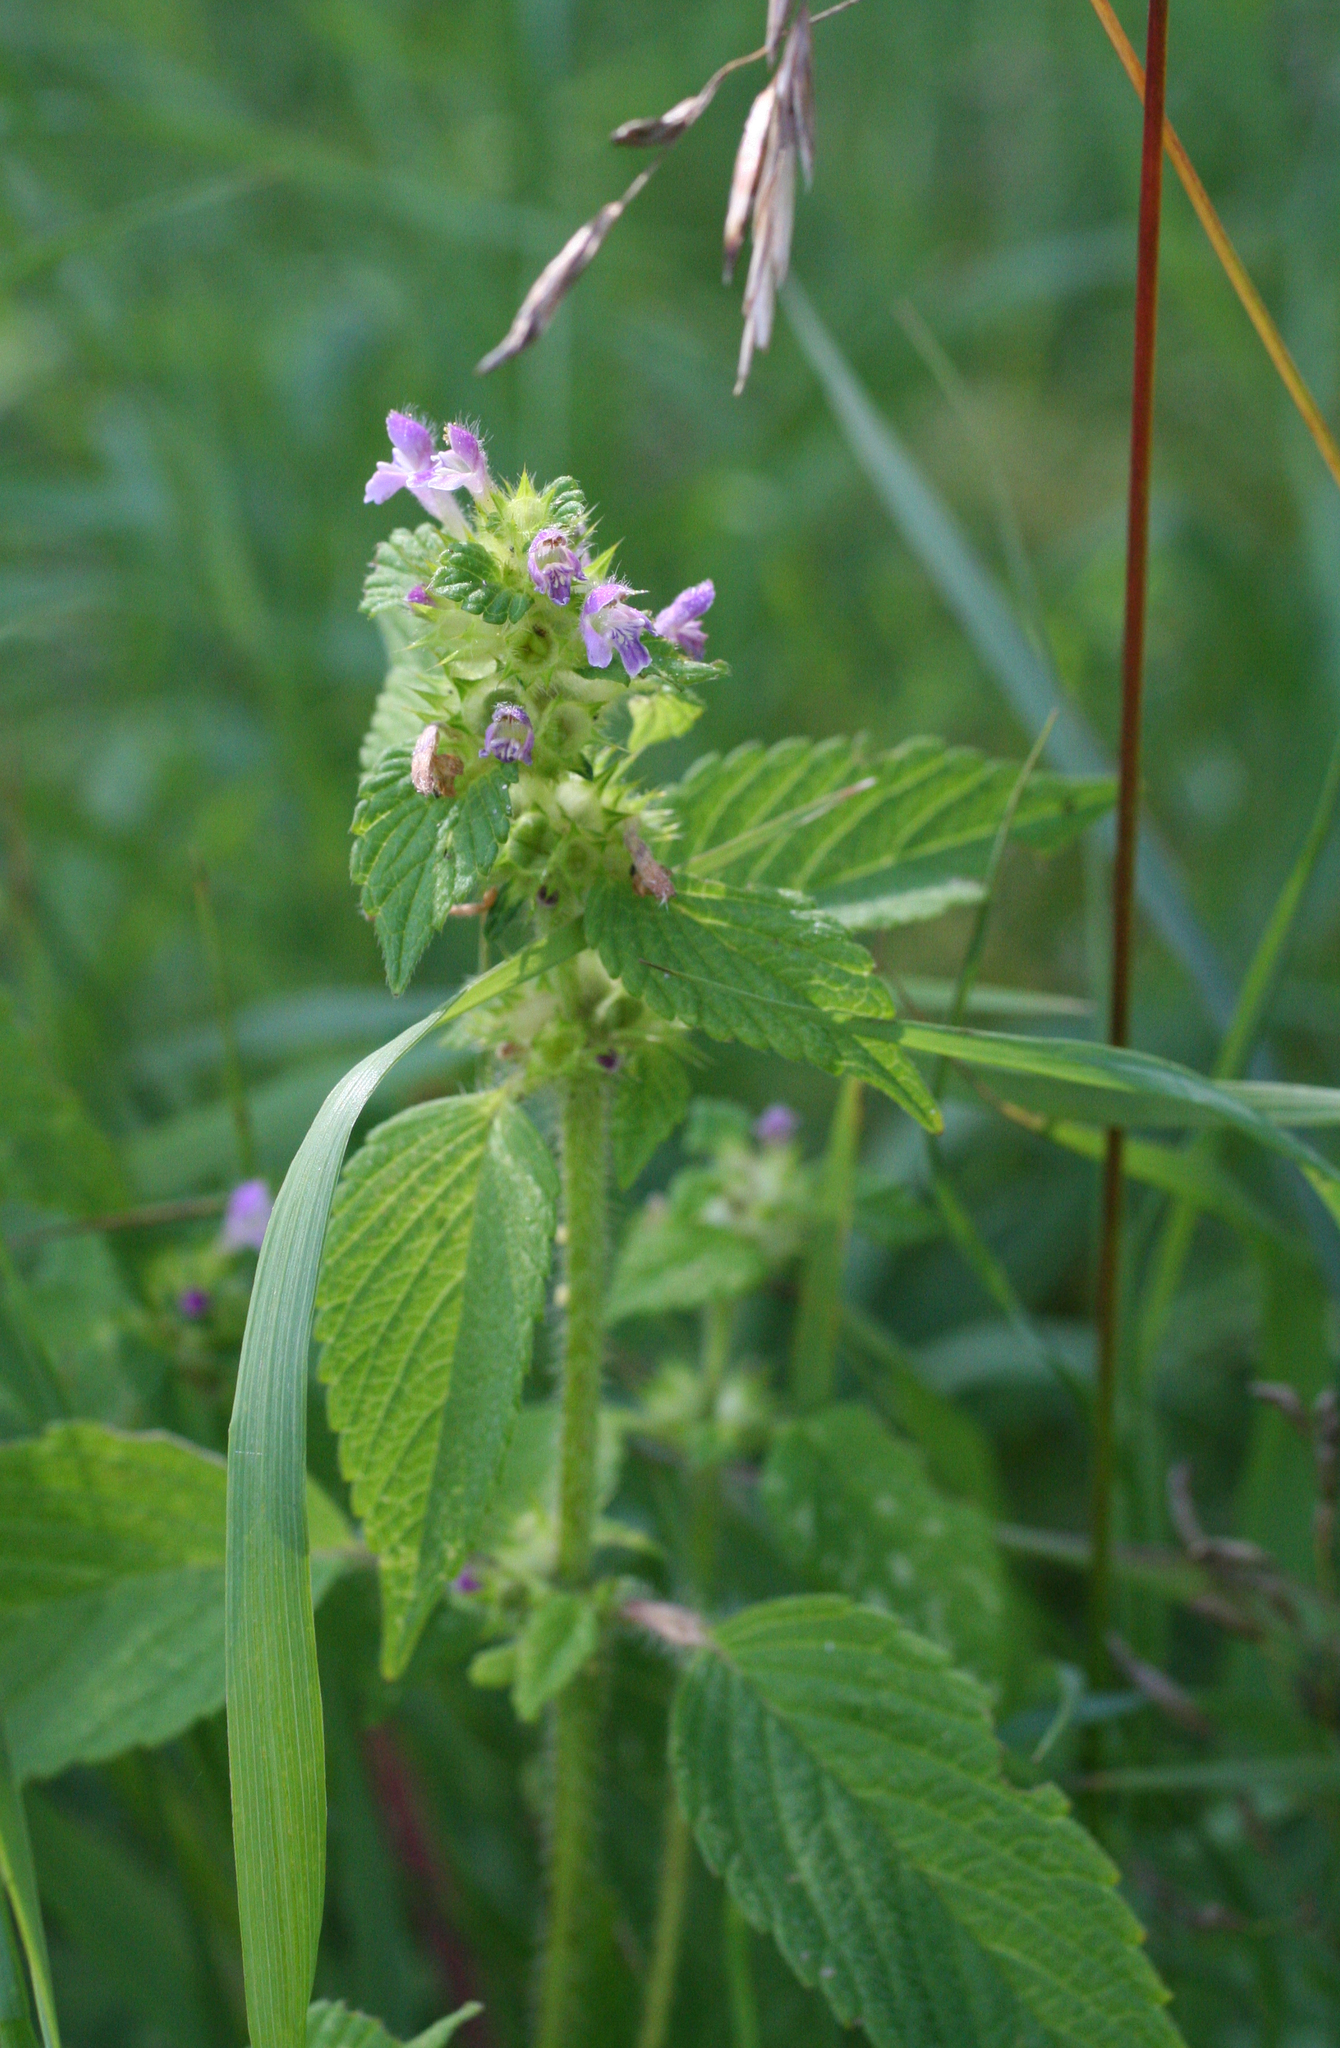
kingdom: Plantae
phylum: Tracheophyta
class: Magnoliopsida
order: Lamiales
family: Lamiaceae
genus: Galeopsis
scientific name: Galeopsis bifida
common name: Bifid hemp-nettle
